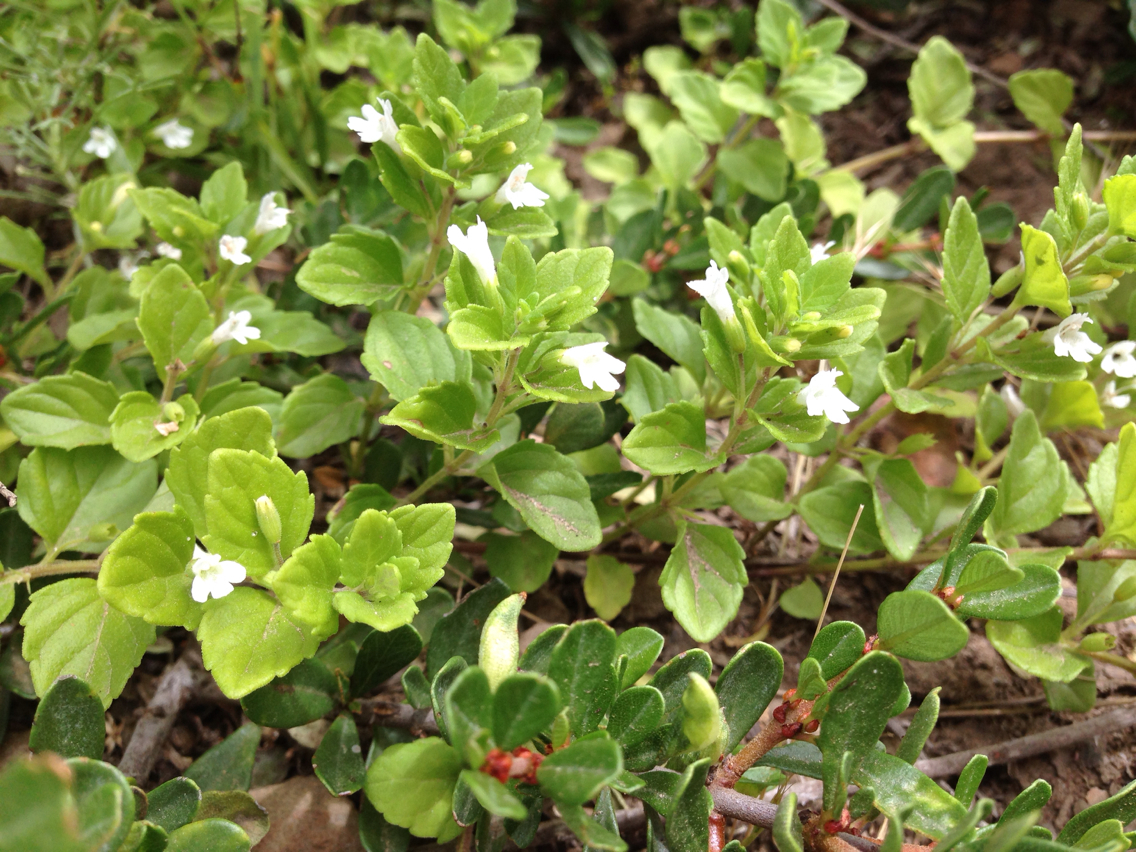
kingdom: Plantae
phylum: Tracheophyta
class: Magnoliopsida
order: Lamiales
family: Lamiaceae
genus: Micromeria
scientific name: Micromeria douglasii
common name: Yerba buena
